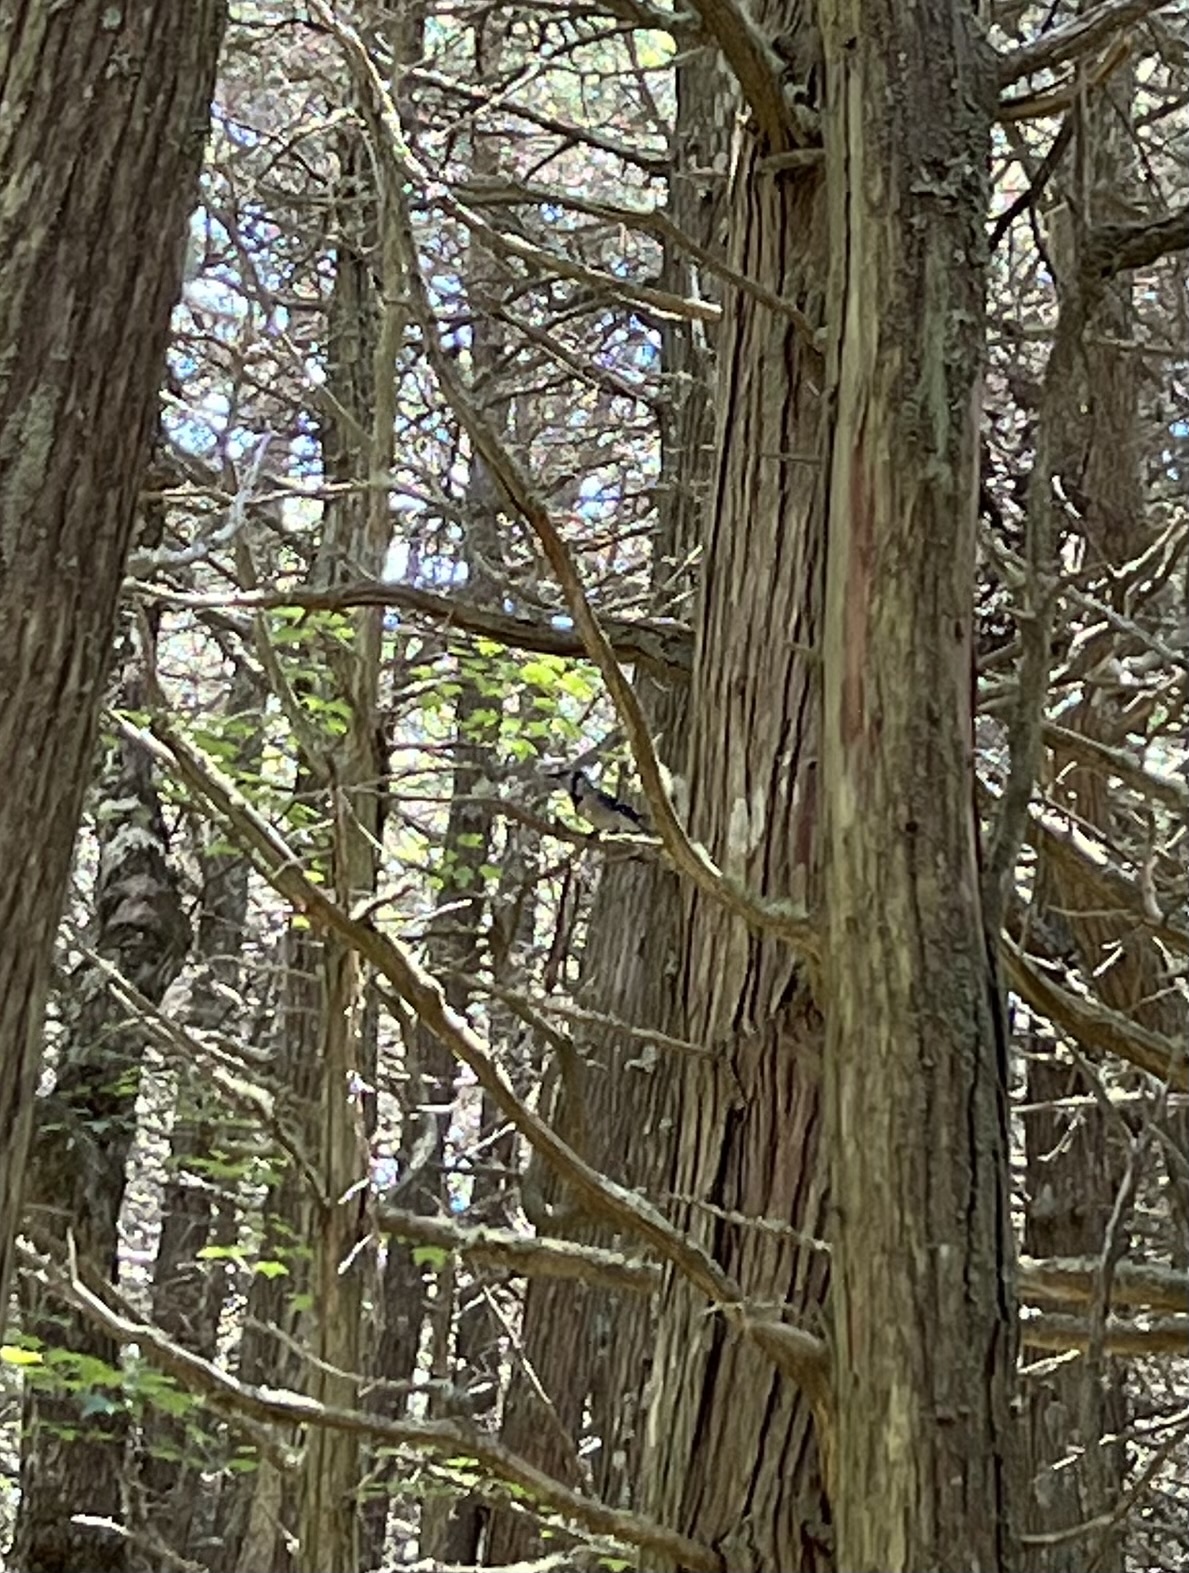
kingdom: Animalia
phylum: Chordata
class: Aves
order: Passeriformes
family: Corvidae
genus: Cyanocitta
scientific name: Cyanocitta cristata
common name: Blue jay
